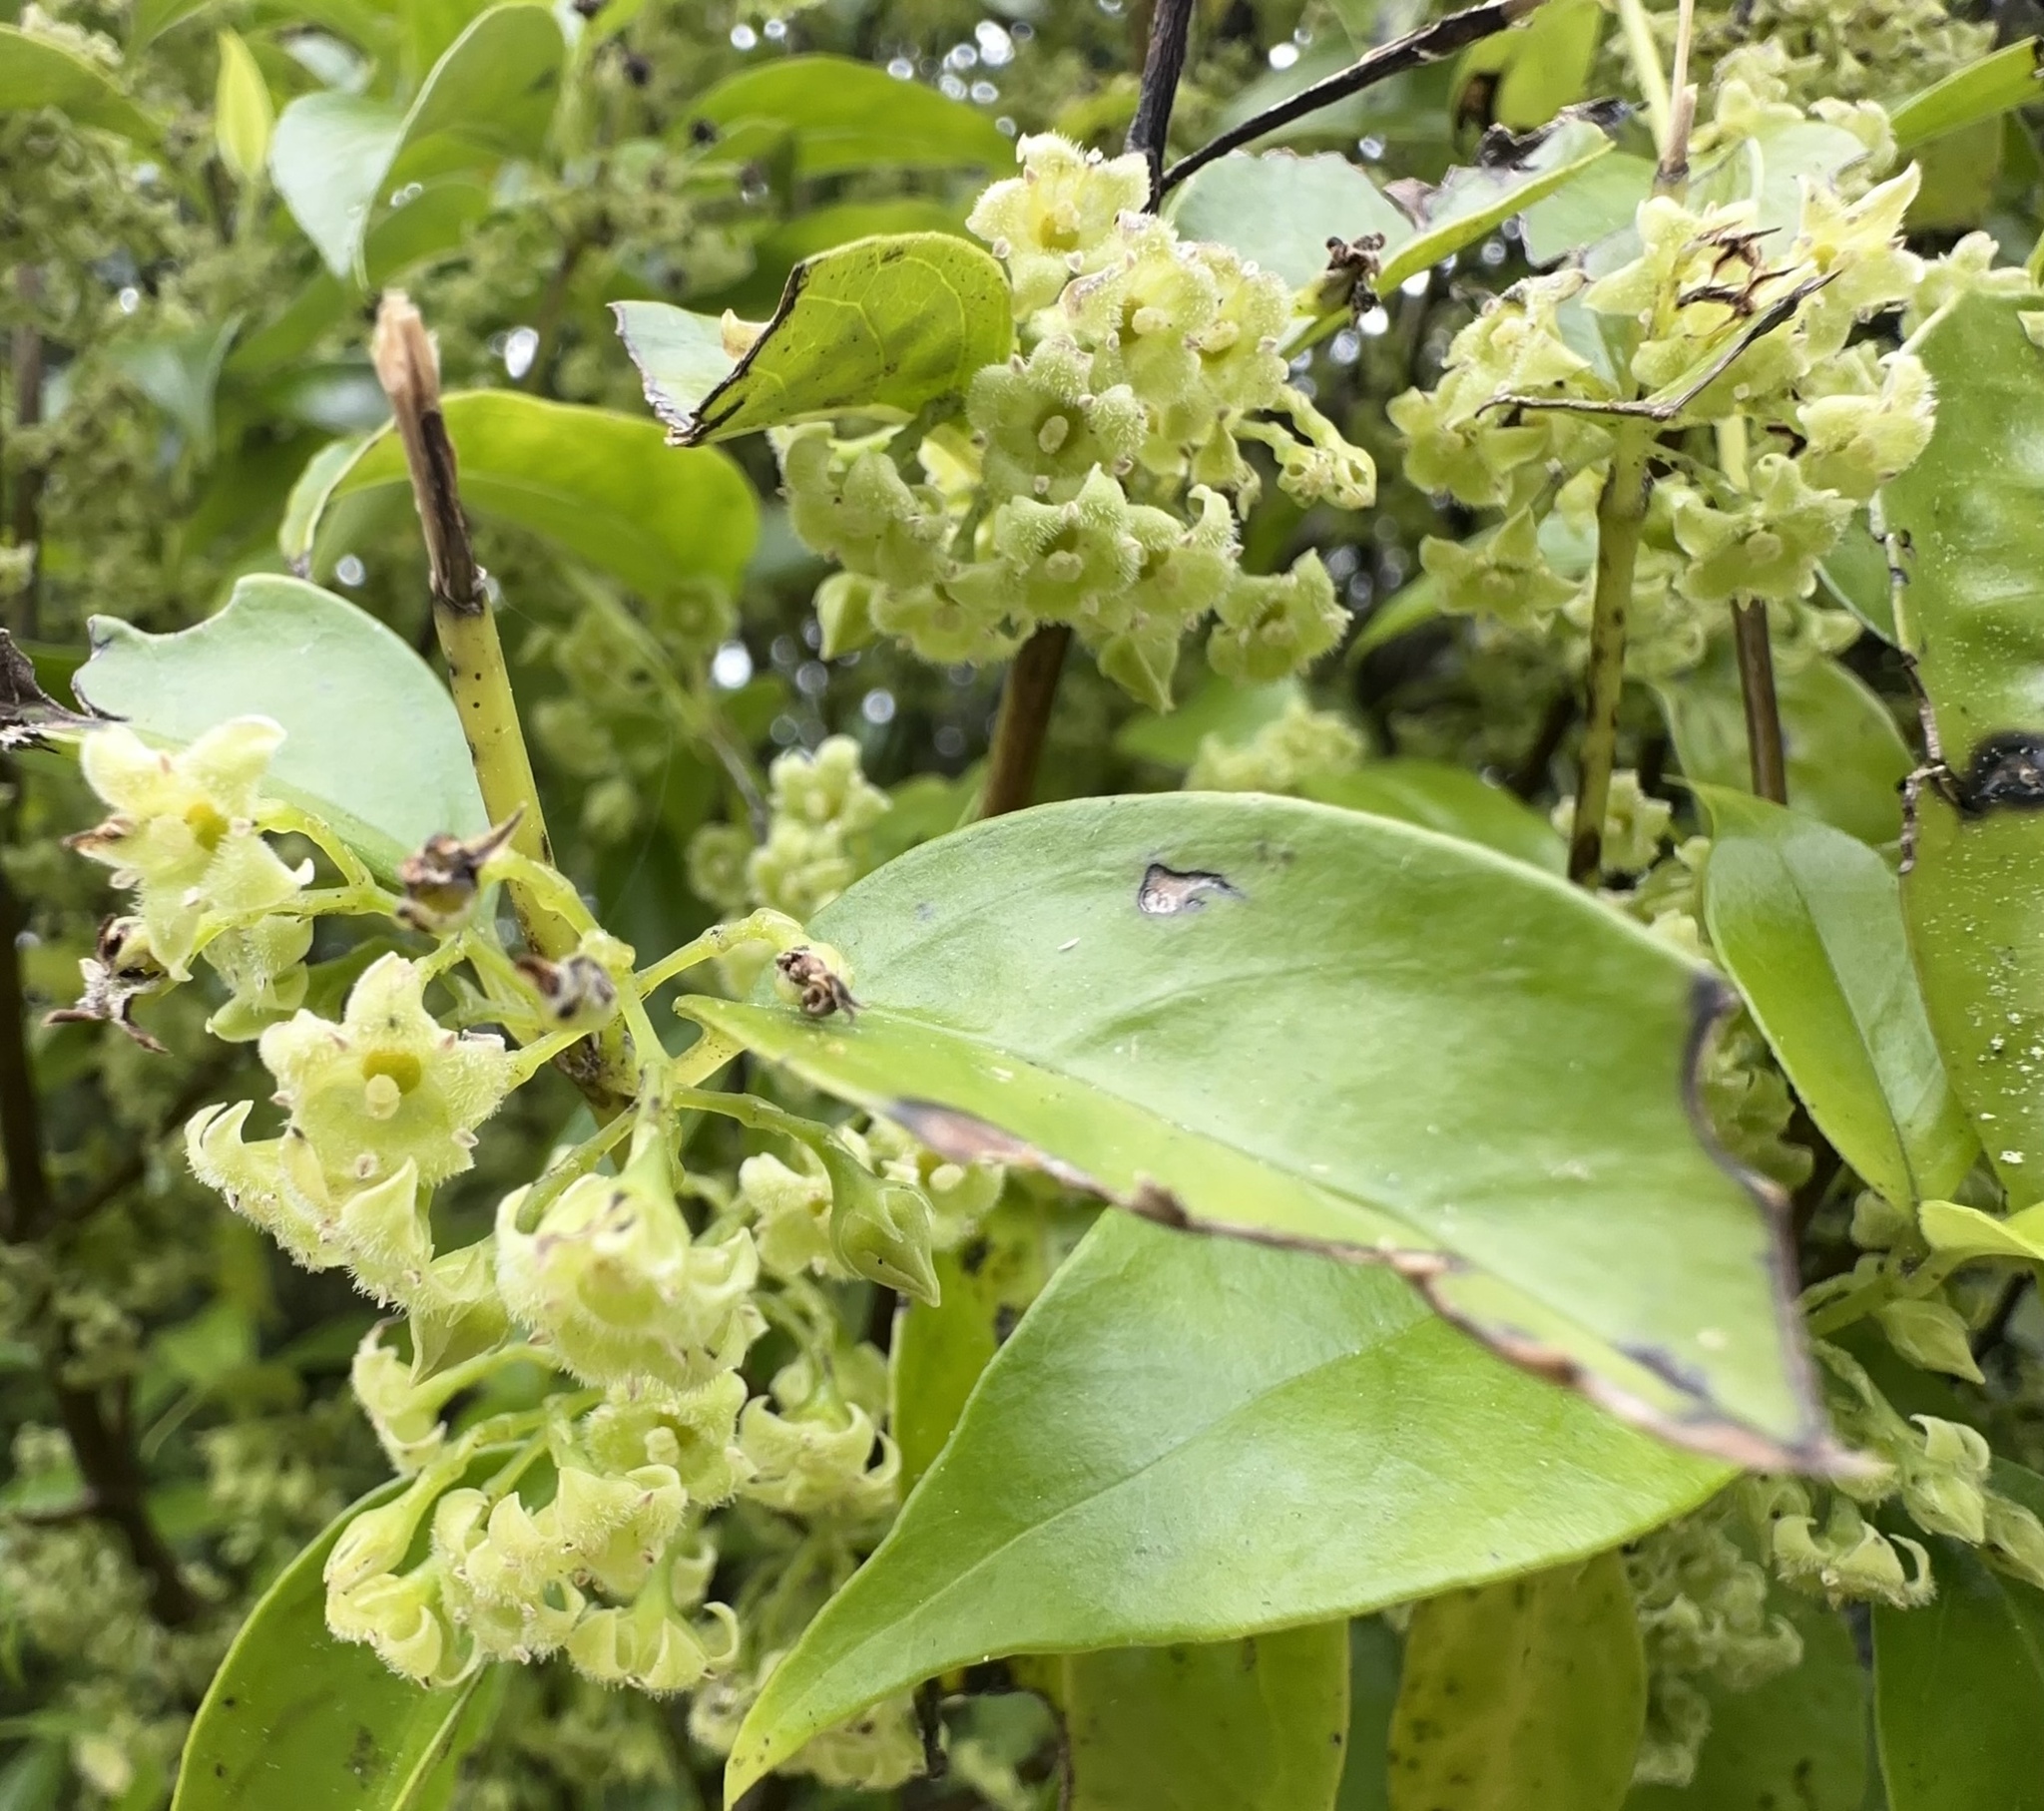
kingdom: Plantae
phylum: Tracheophyta
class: Magnoliopsida
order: Gentianales
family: Loganiaceae
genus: Geniostoma
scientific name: Geniostoma ligustrifolium
